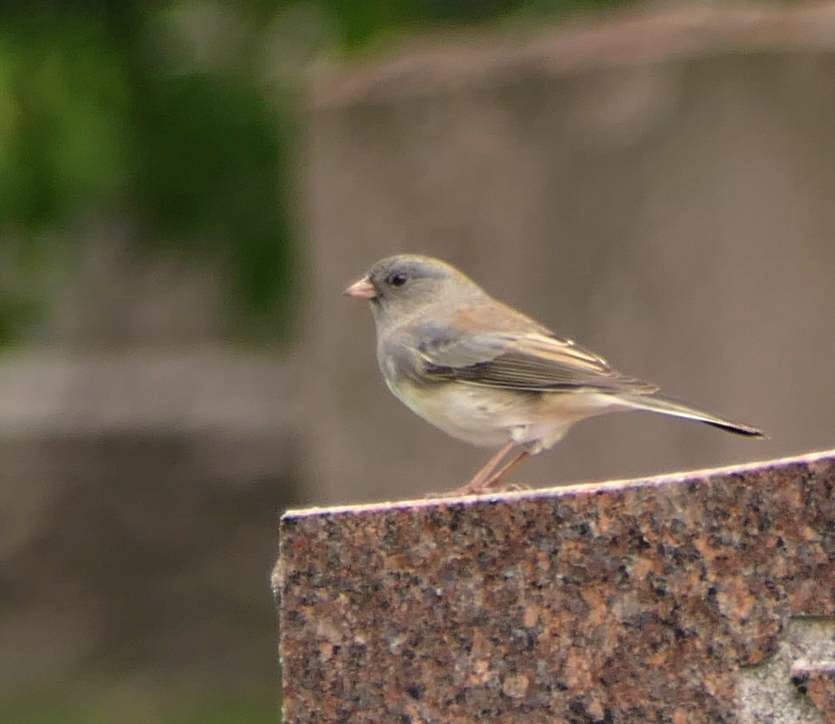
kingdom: Animalia
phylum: Chordata
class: Aves
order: Passeriformes
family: Passerellidae
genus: Junco
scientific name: Junco hyemalis
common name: Dark-eyed junco
